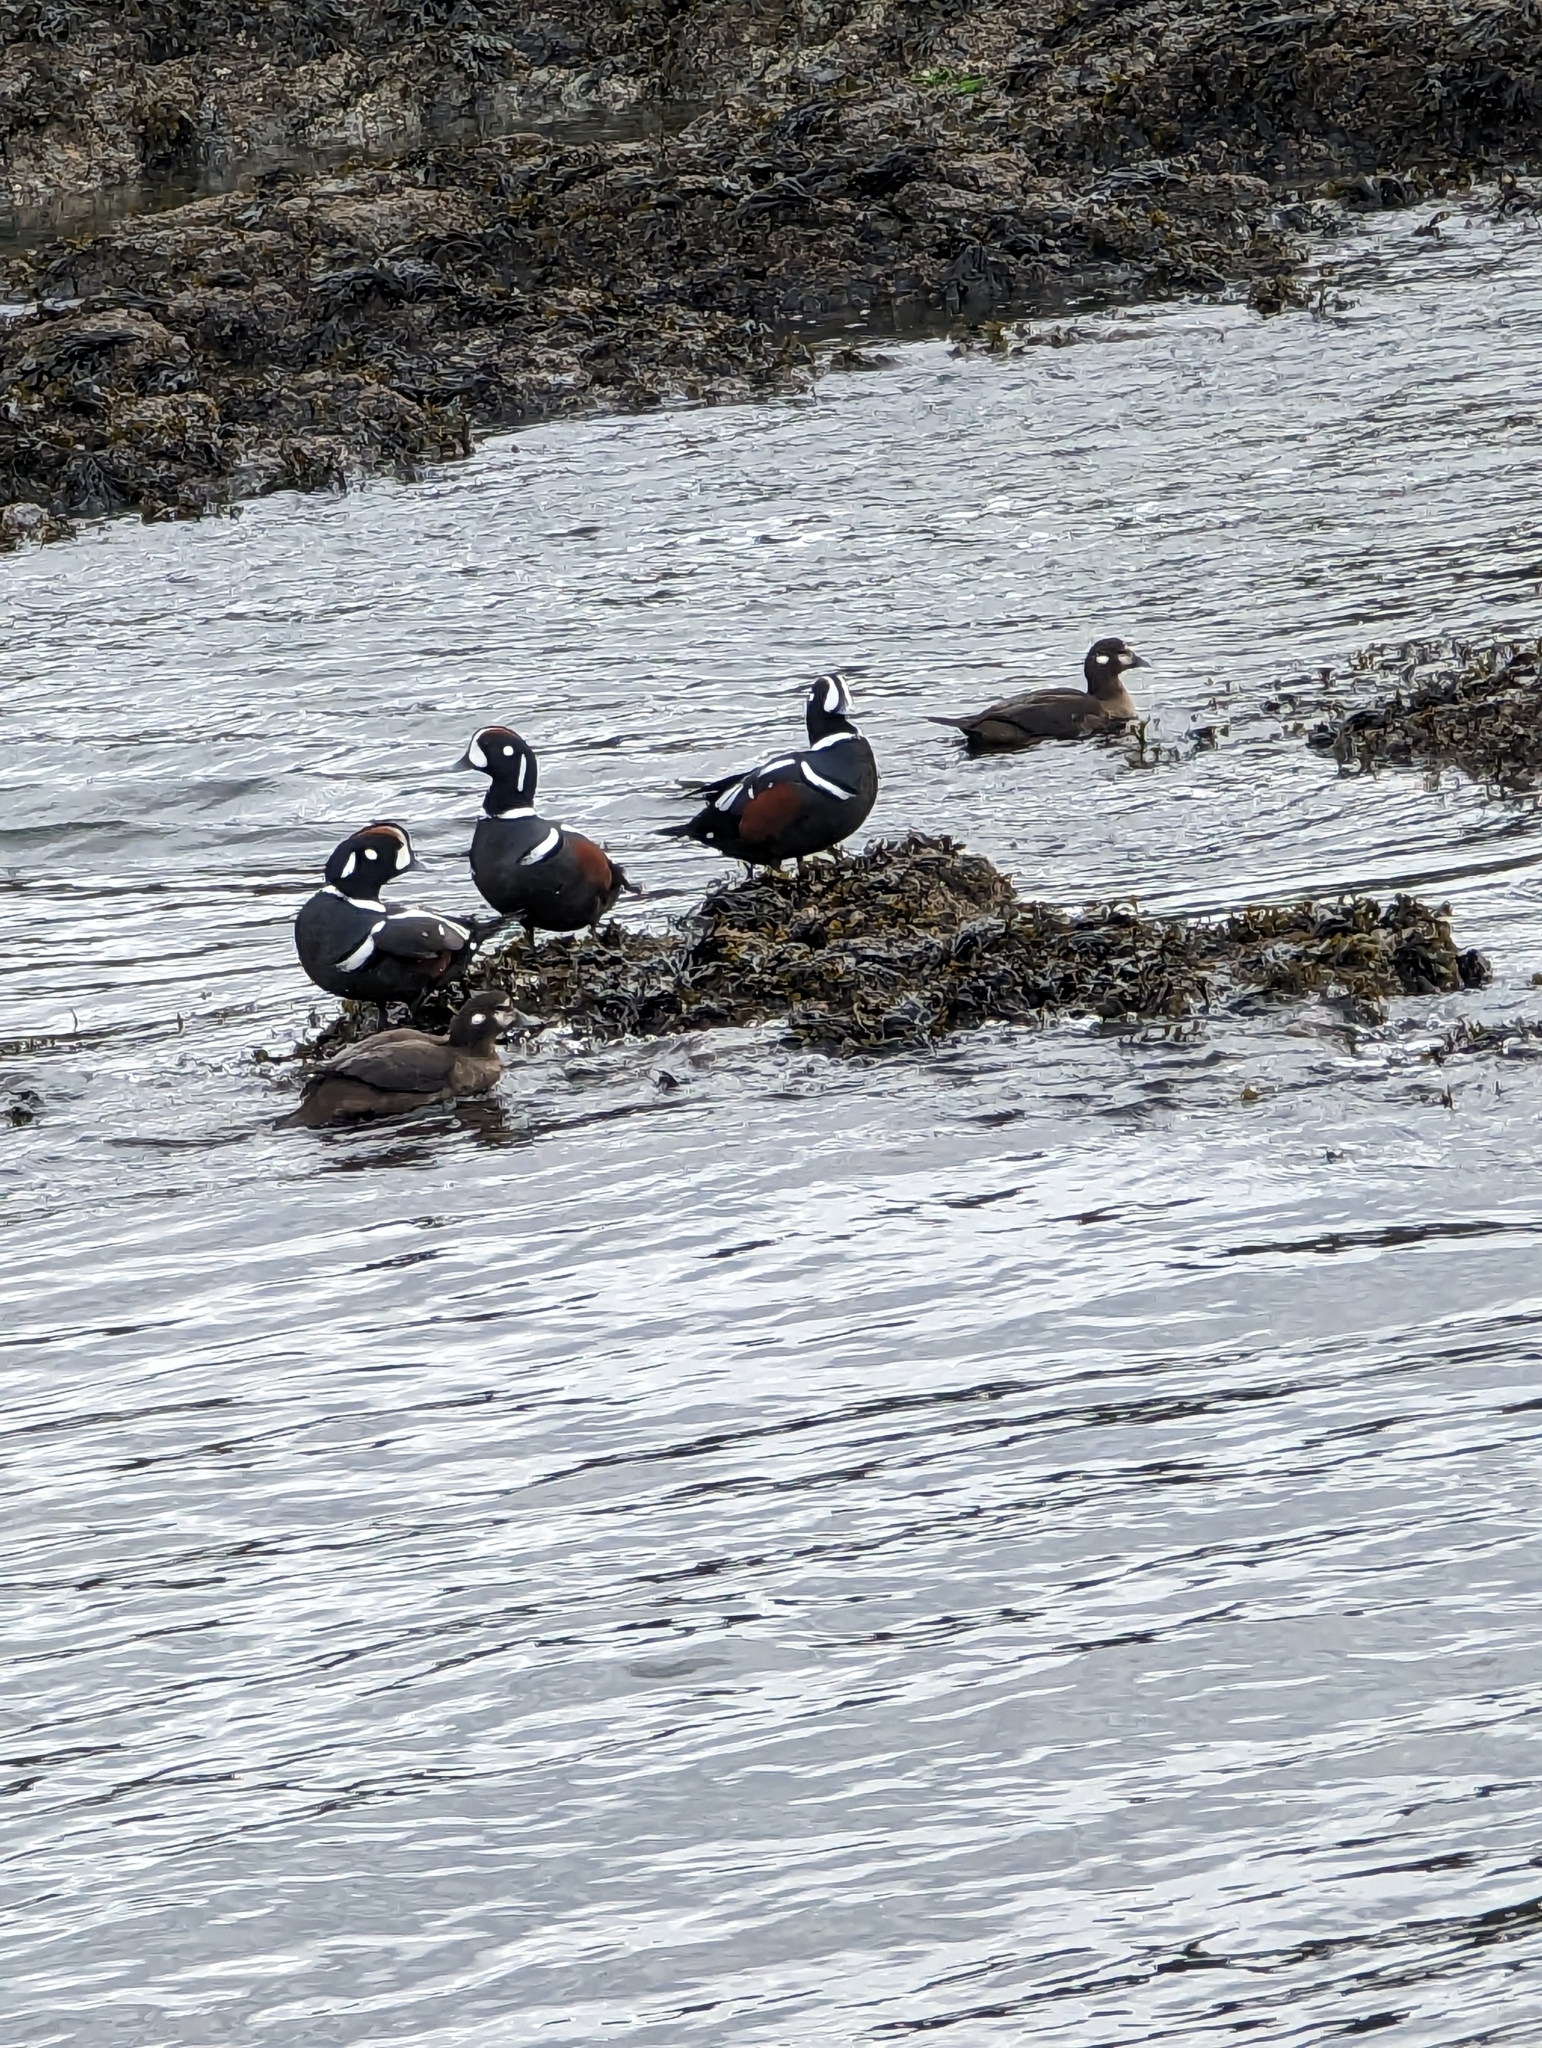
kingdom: Animalia
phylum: Chordata
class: Aves
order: Anseriformes
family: Anatidae
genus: Histrionicus
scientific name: Histrionicus histrionicus
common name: Harlequin duck
